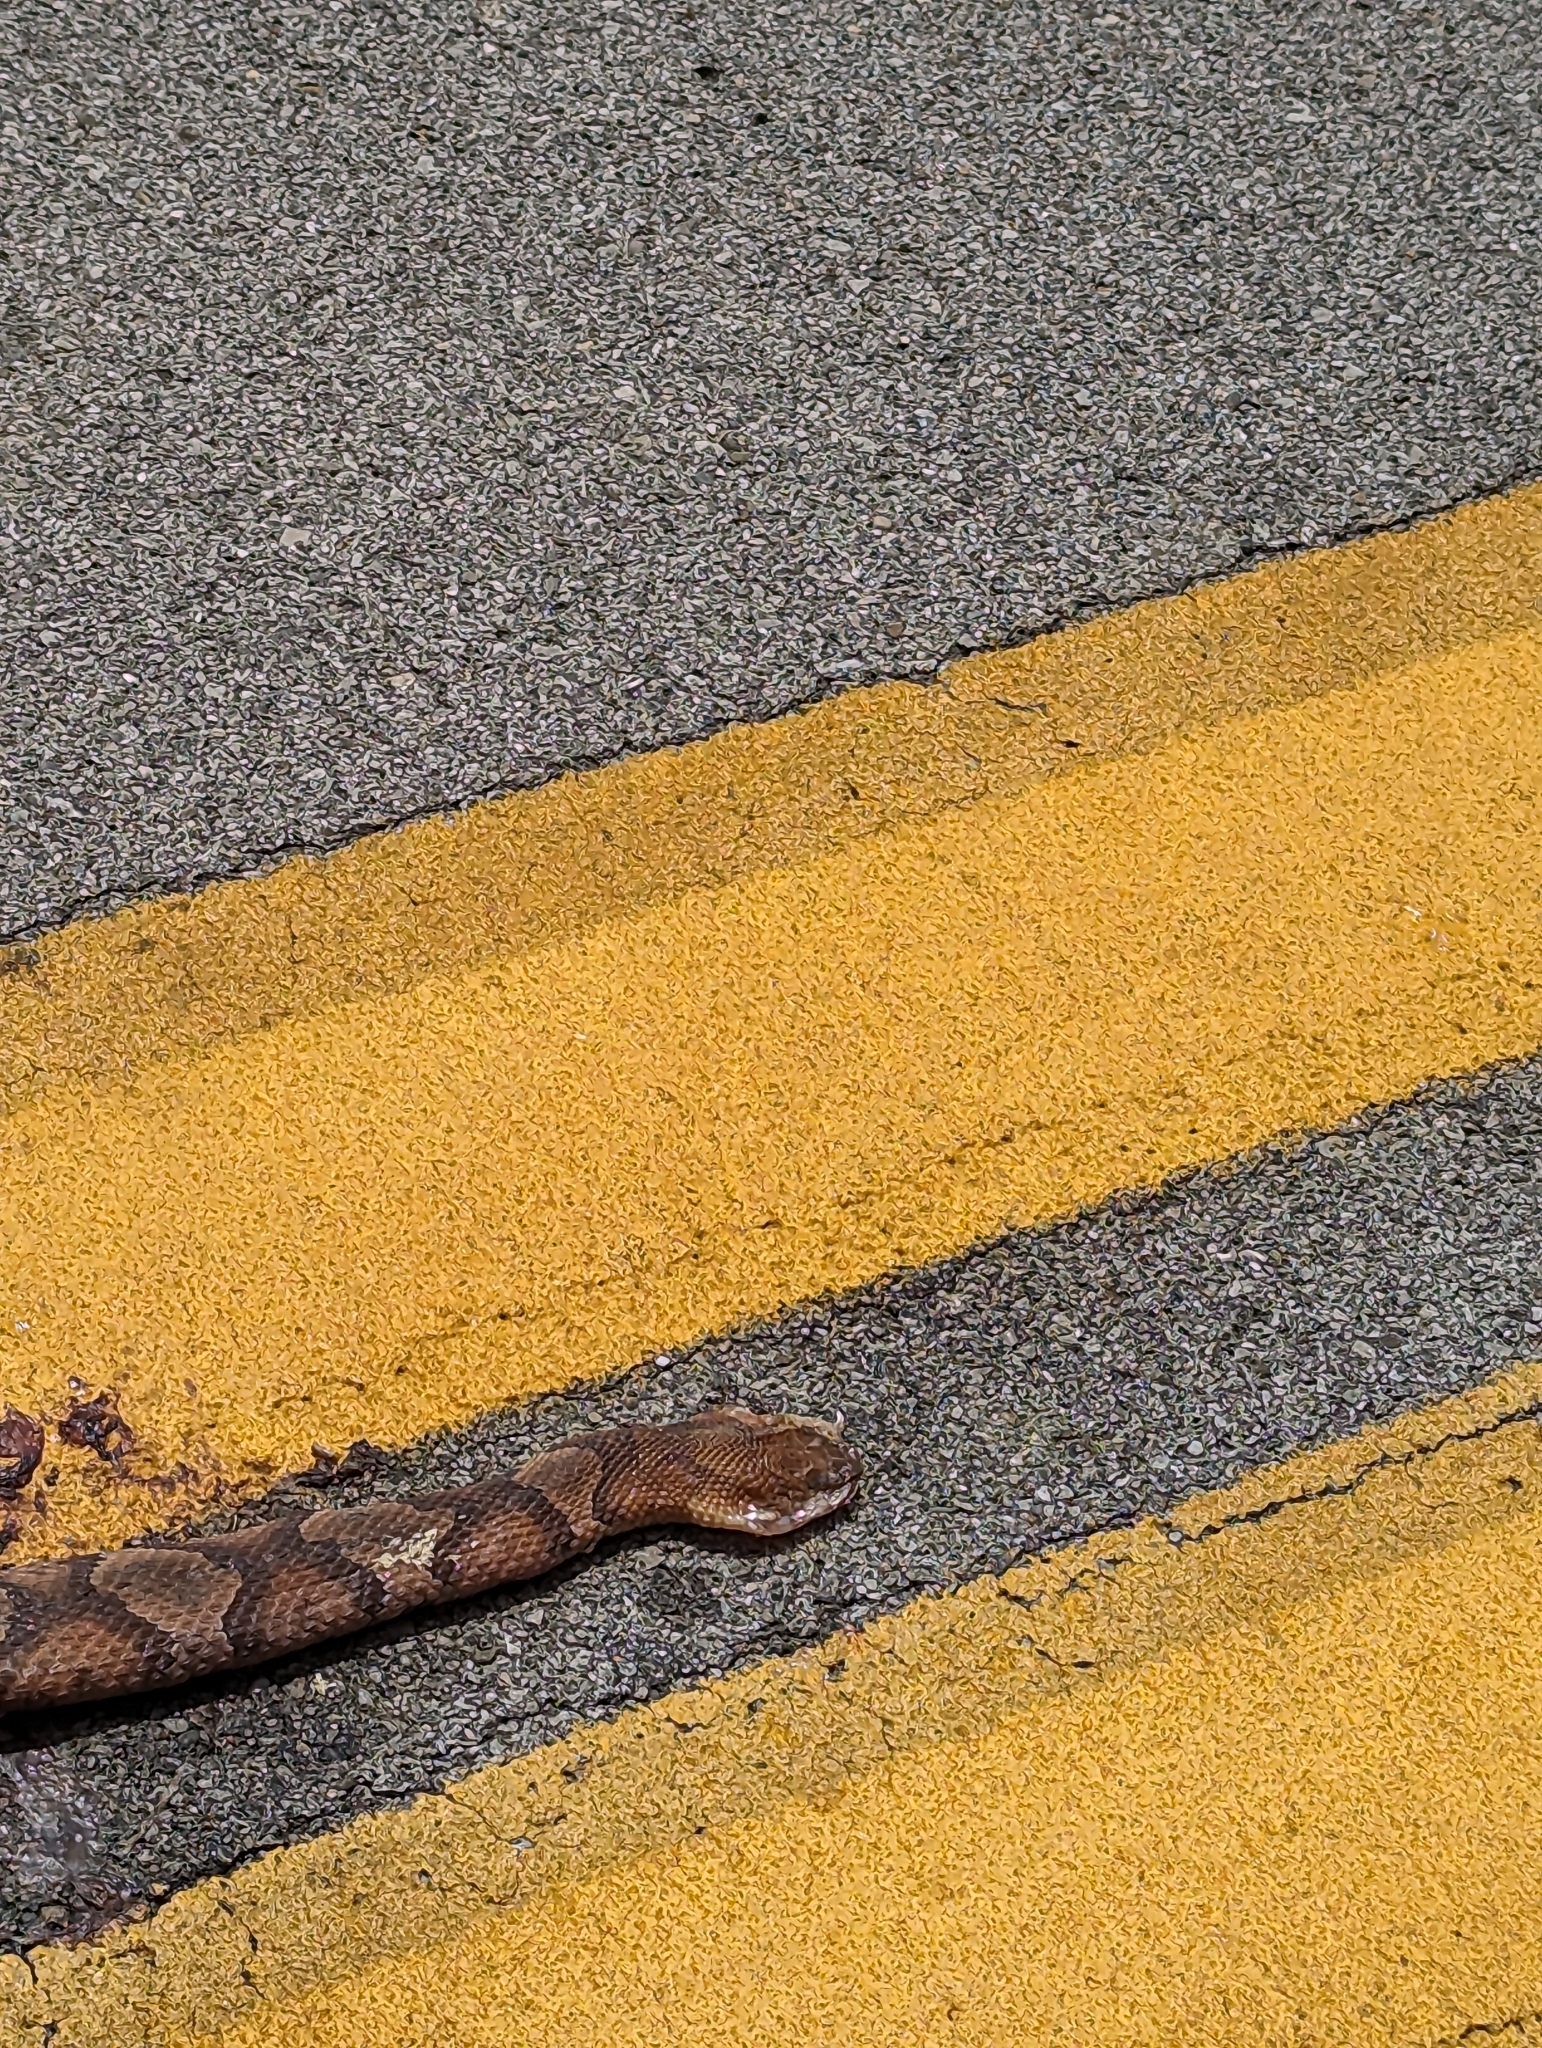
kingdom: Animalia
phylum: Chordata
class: Squamata
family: Viperidae
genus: Agkistrodon
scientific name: Agkistrodon contortrix
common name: Northern copperhead
